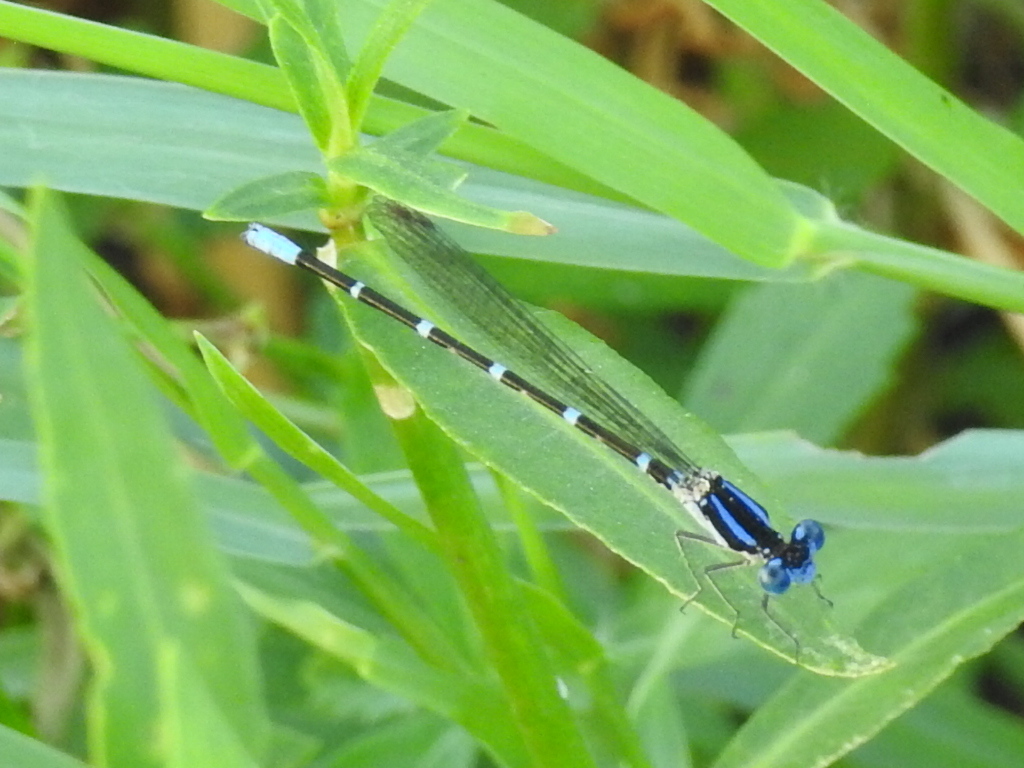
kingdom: Animalia
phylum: Arthropoda
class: Insecta
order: Odonata
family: Coenagrionidae
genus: Argia
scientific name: Argia sedula
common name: Blue-ringed dancer
